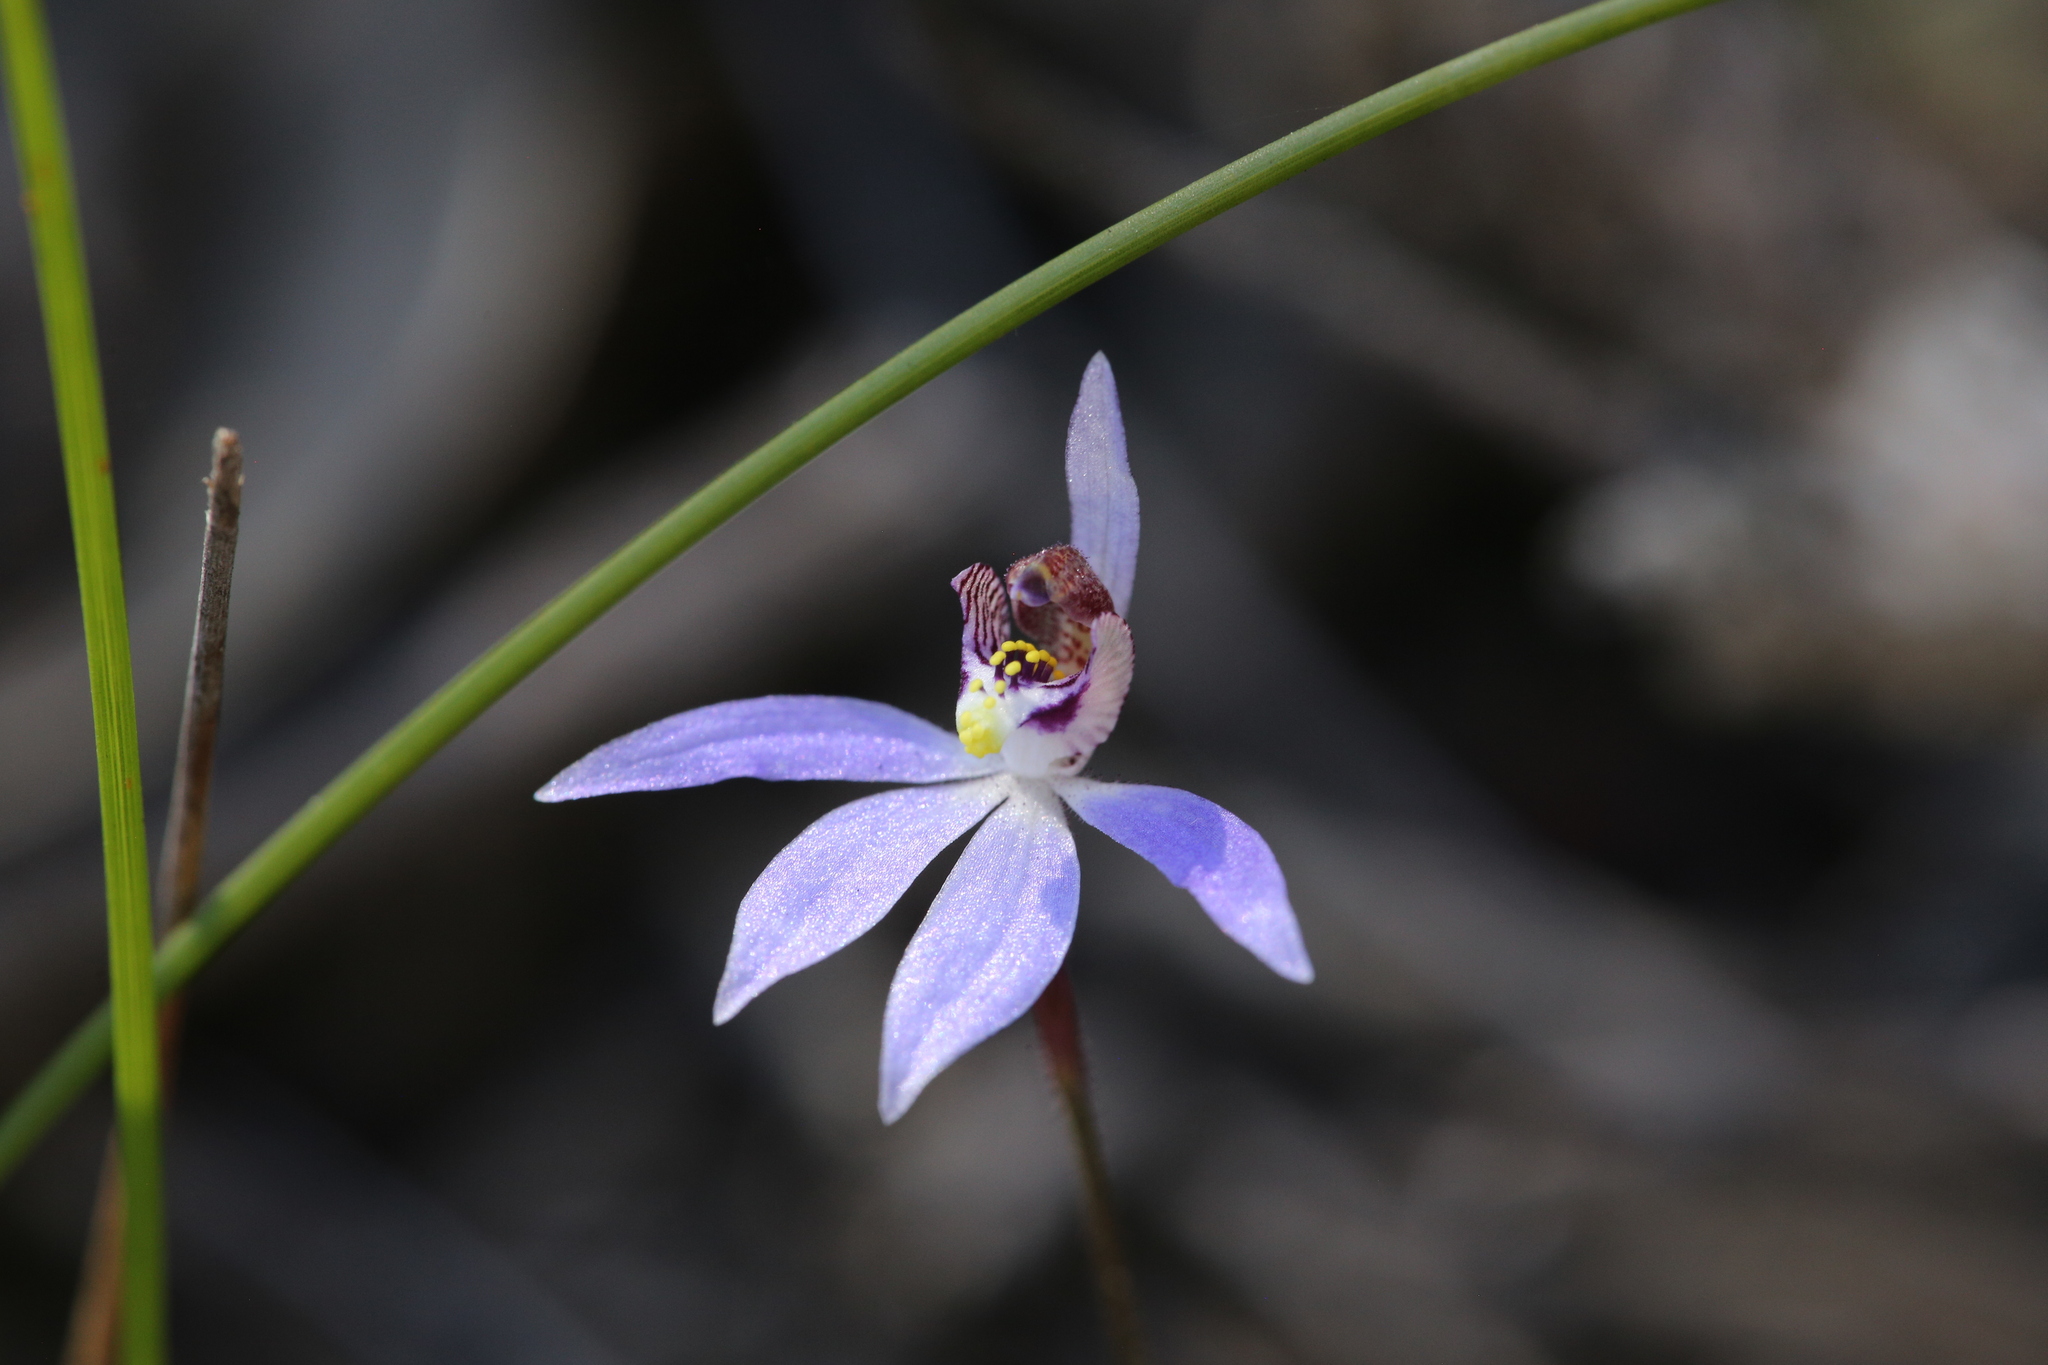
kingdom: Plantae
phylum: Tracheophyta
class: Liliopsida
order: Asparagales
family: Orchidaceae
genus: Caladenia
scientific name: Caladenia aperta
